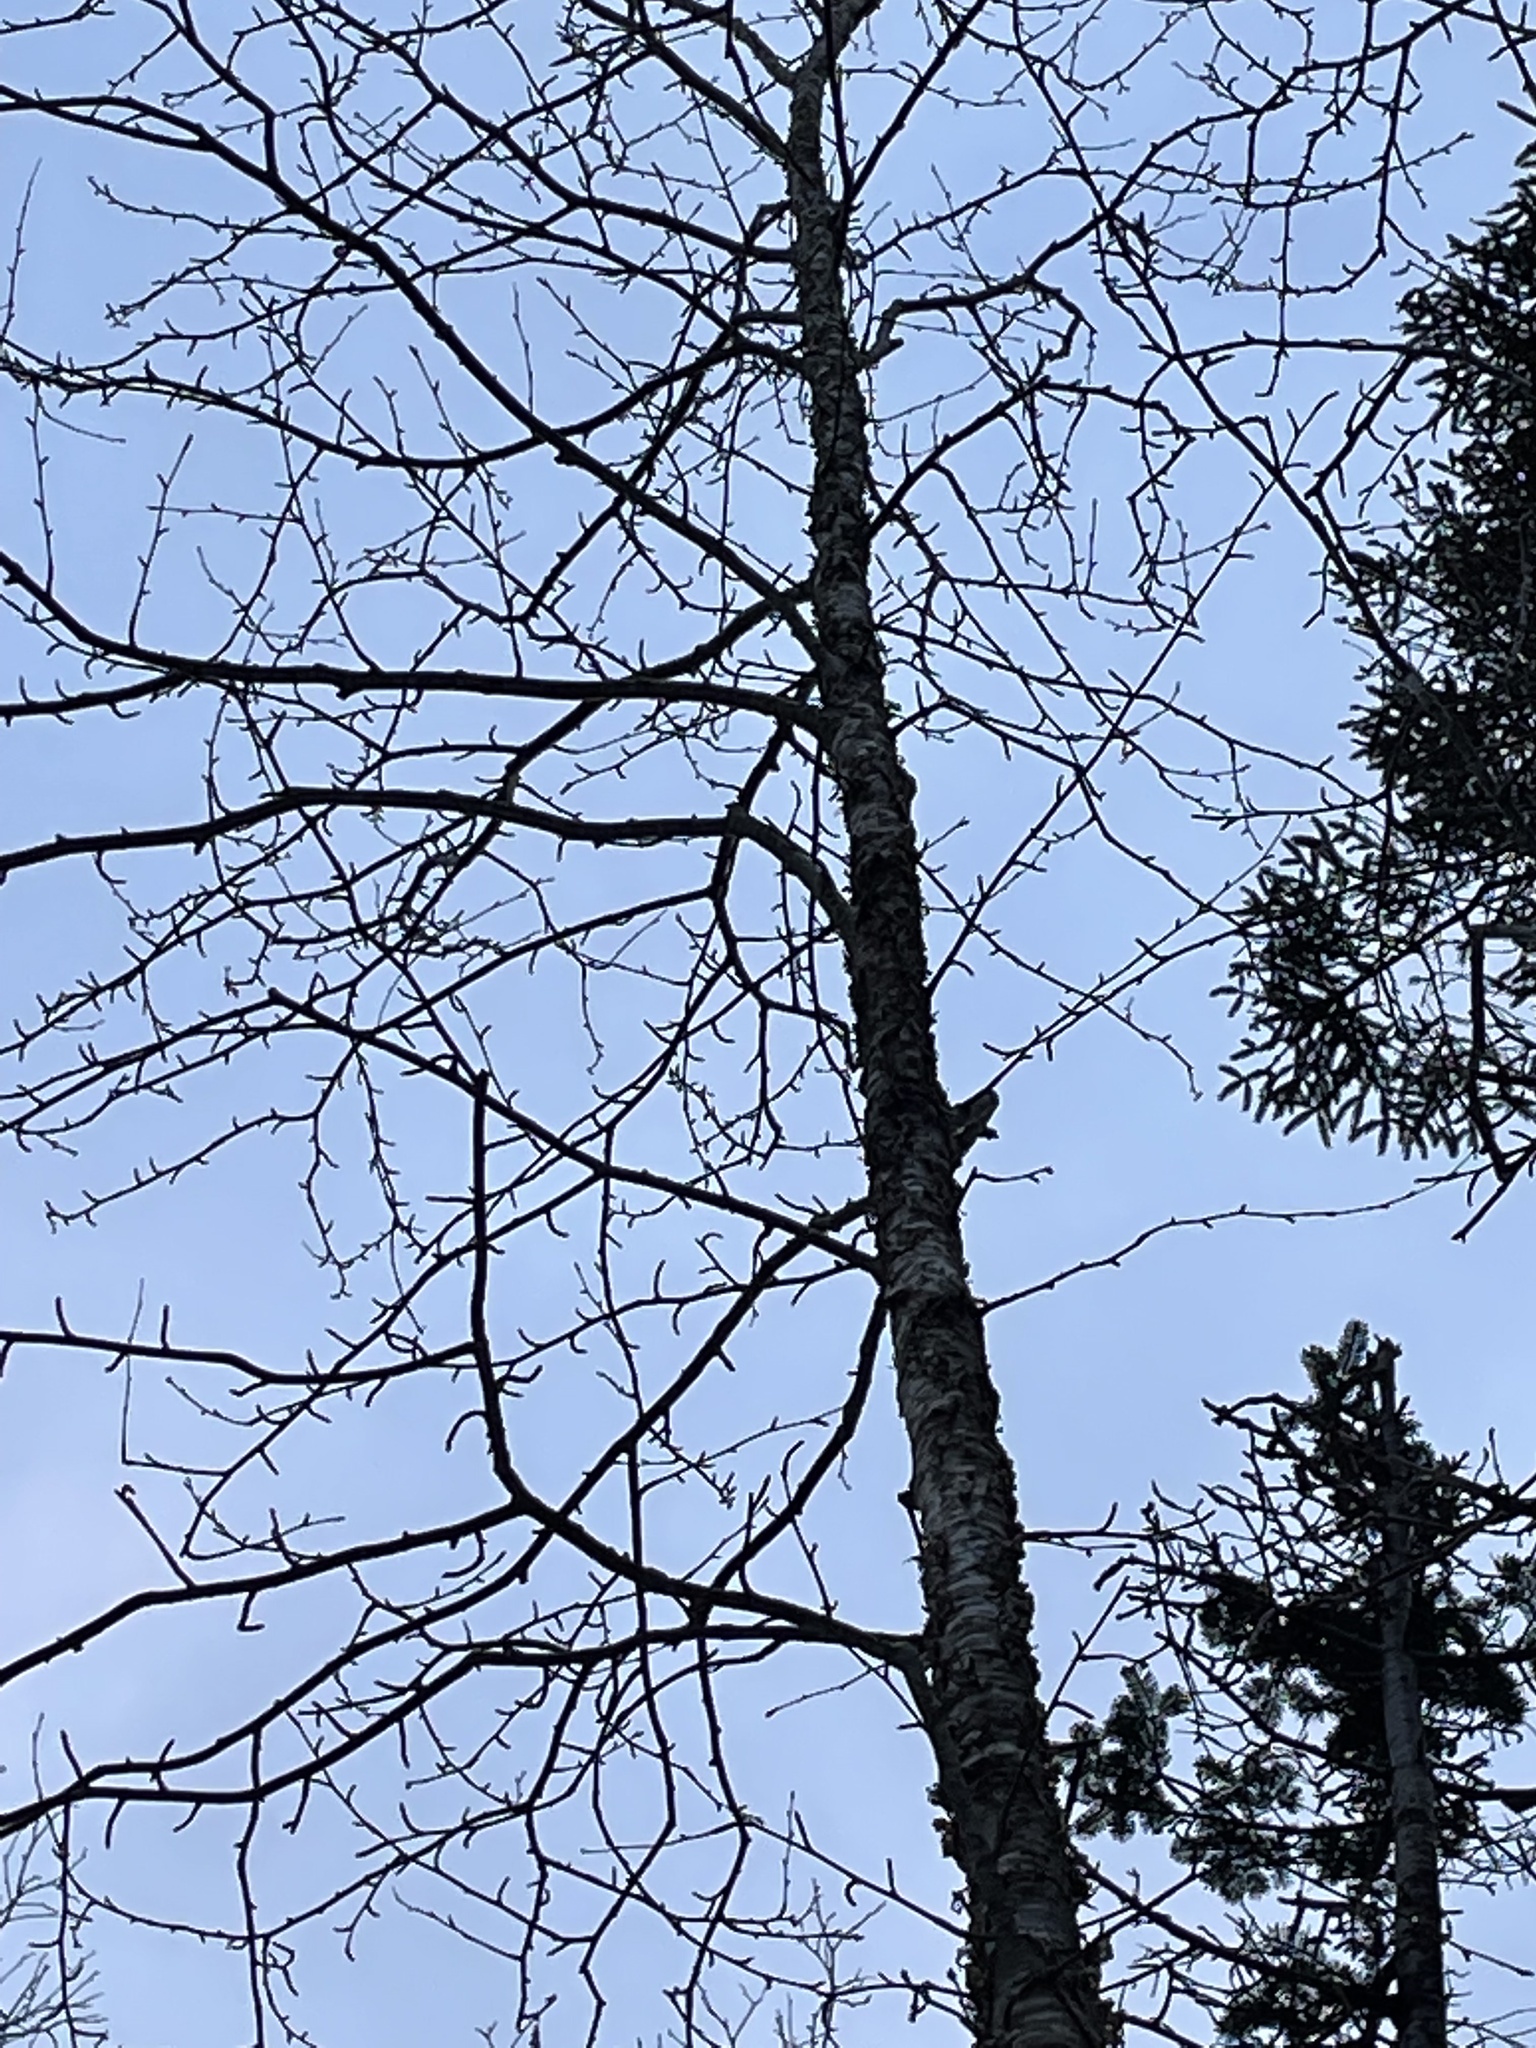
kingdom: Plantae
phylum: Tracheophyta
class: Magnoliopsida
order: Fagales
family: Betulaceae
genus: Betula
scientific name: Betula alleghaniensis
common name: Yellow birch
